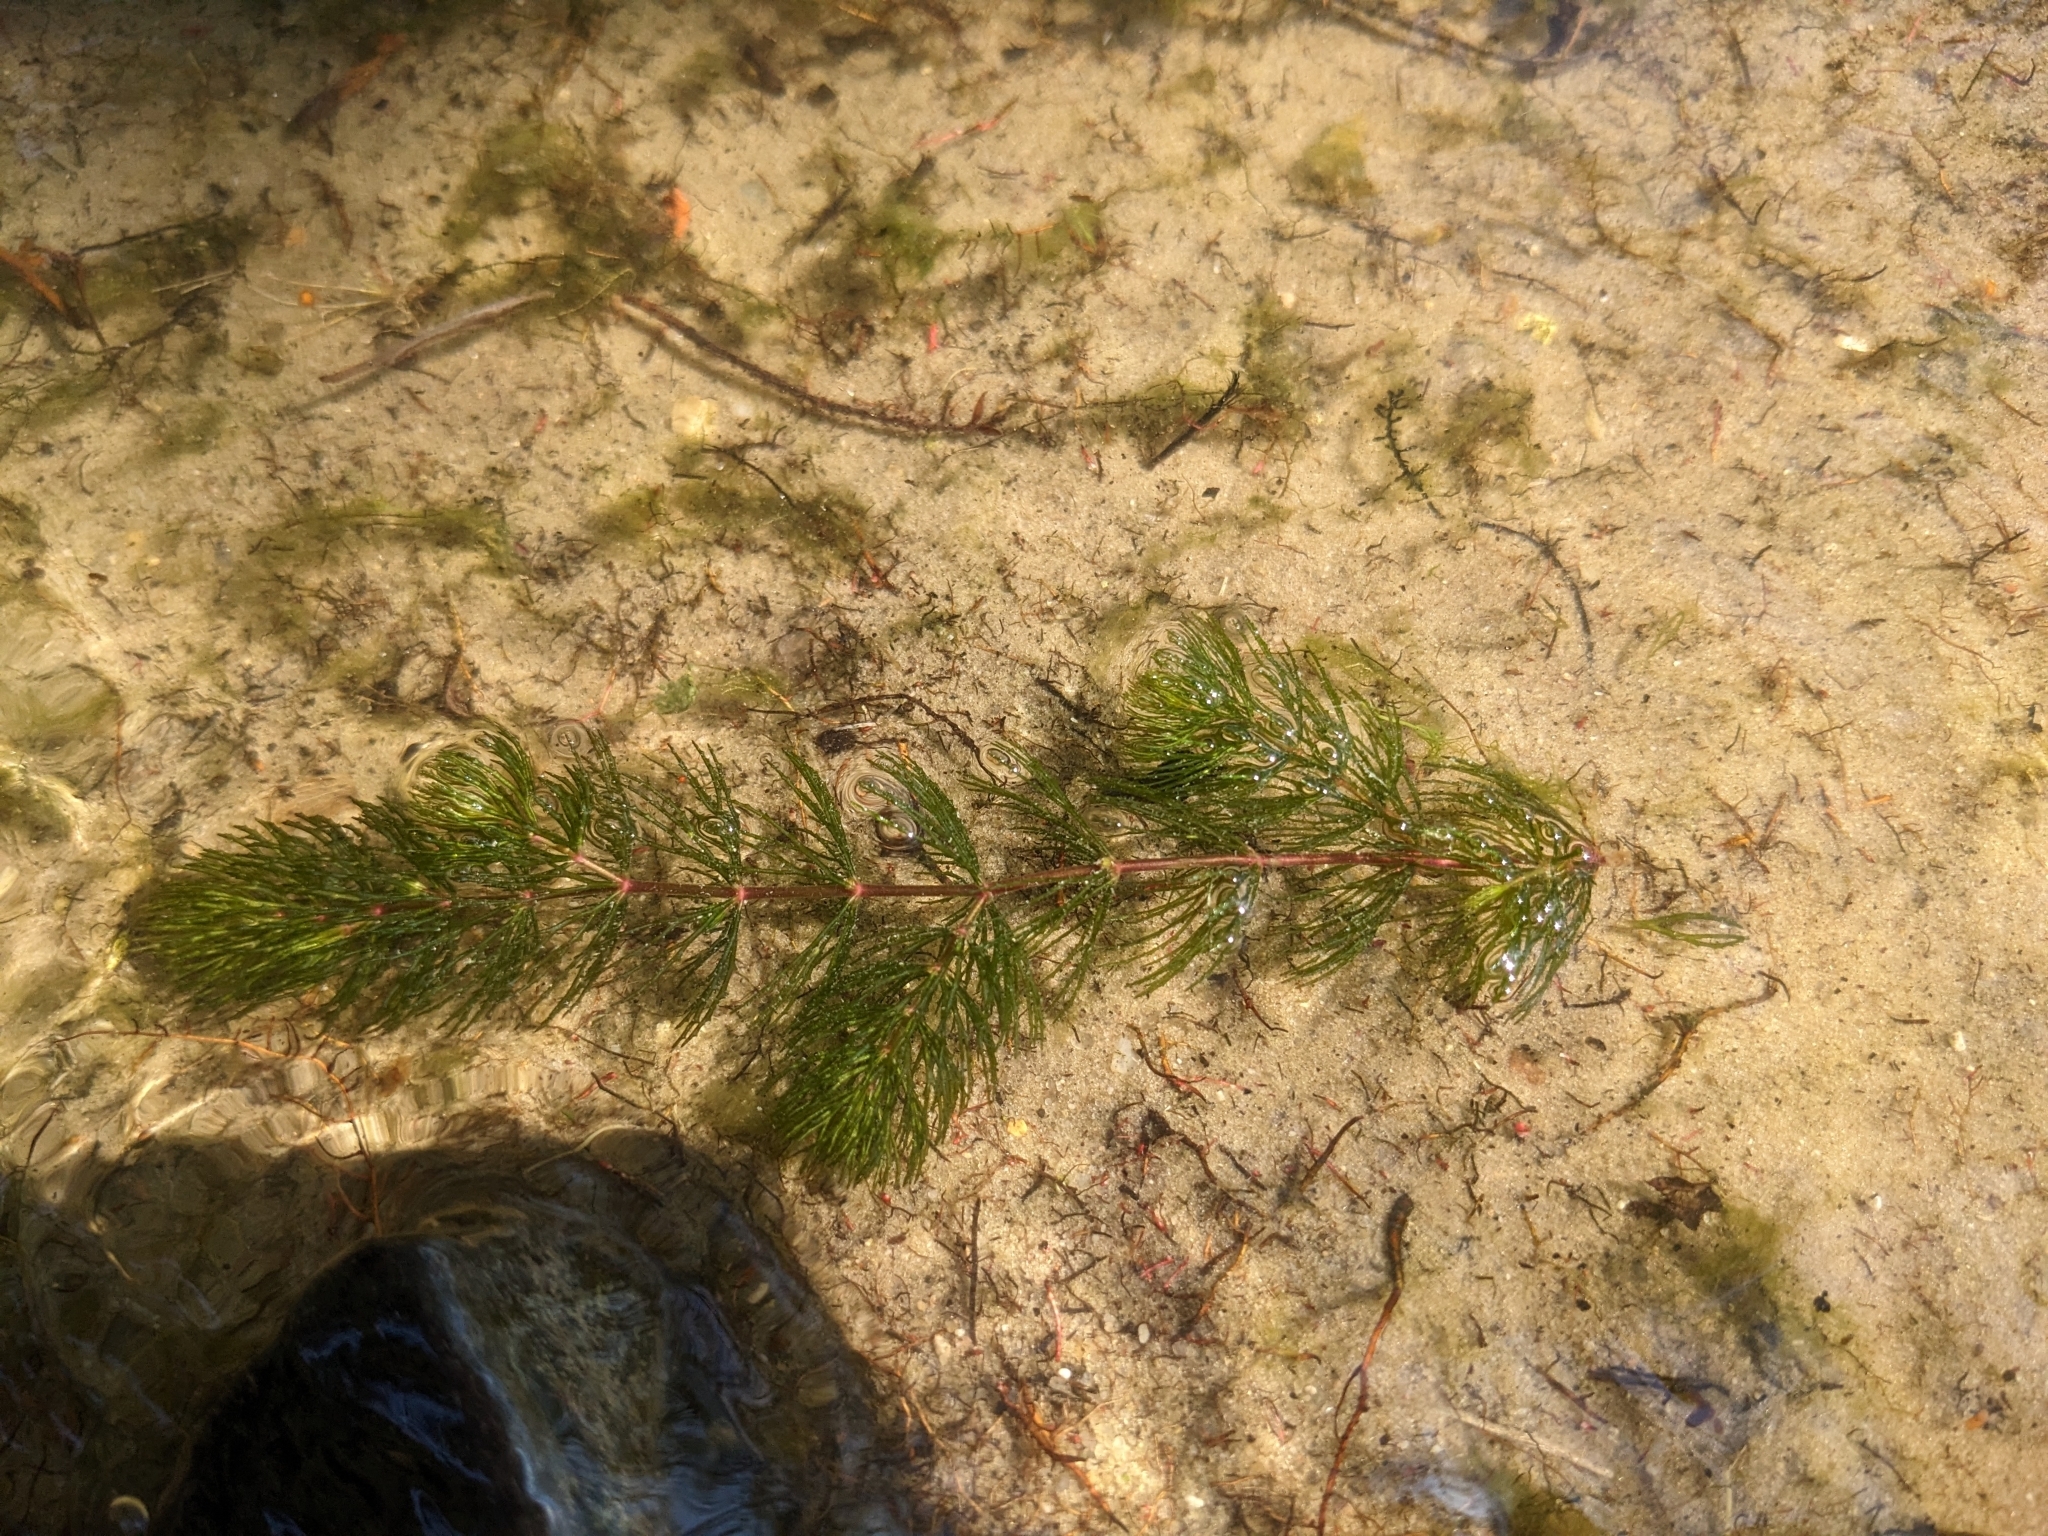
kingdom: Plantae
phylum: Tracheophyta
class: Magnoliopsida
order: Ceratophyllales
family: Ceratophyllaceae
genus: Ceratophyllum
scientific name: Ceratophyllum demersum
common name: Rigid hornwort
